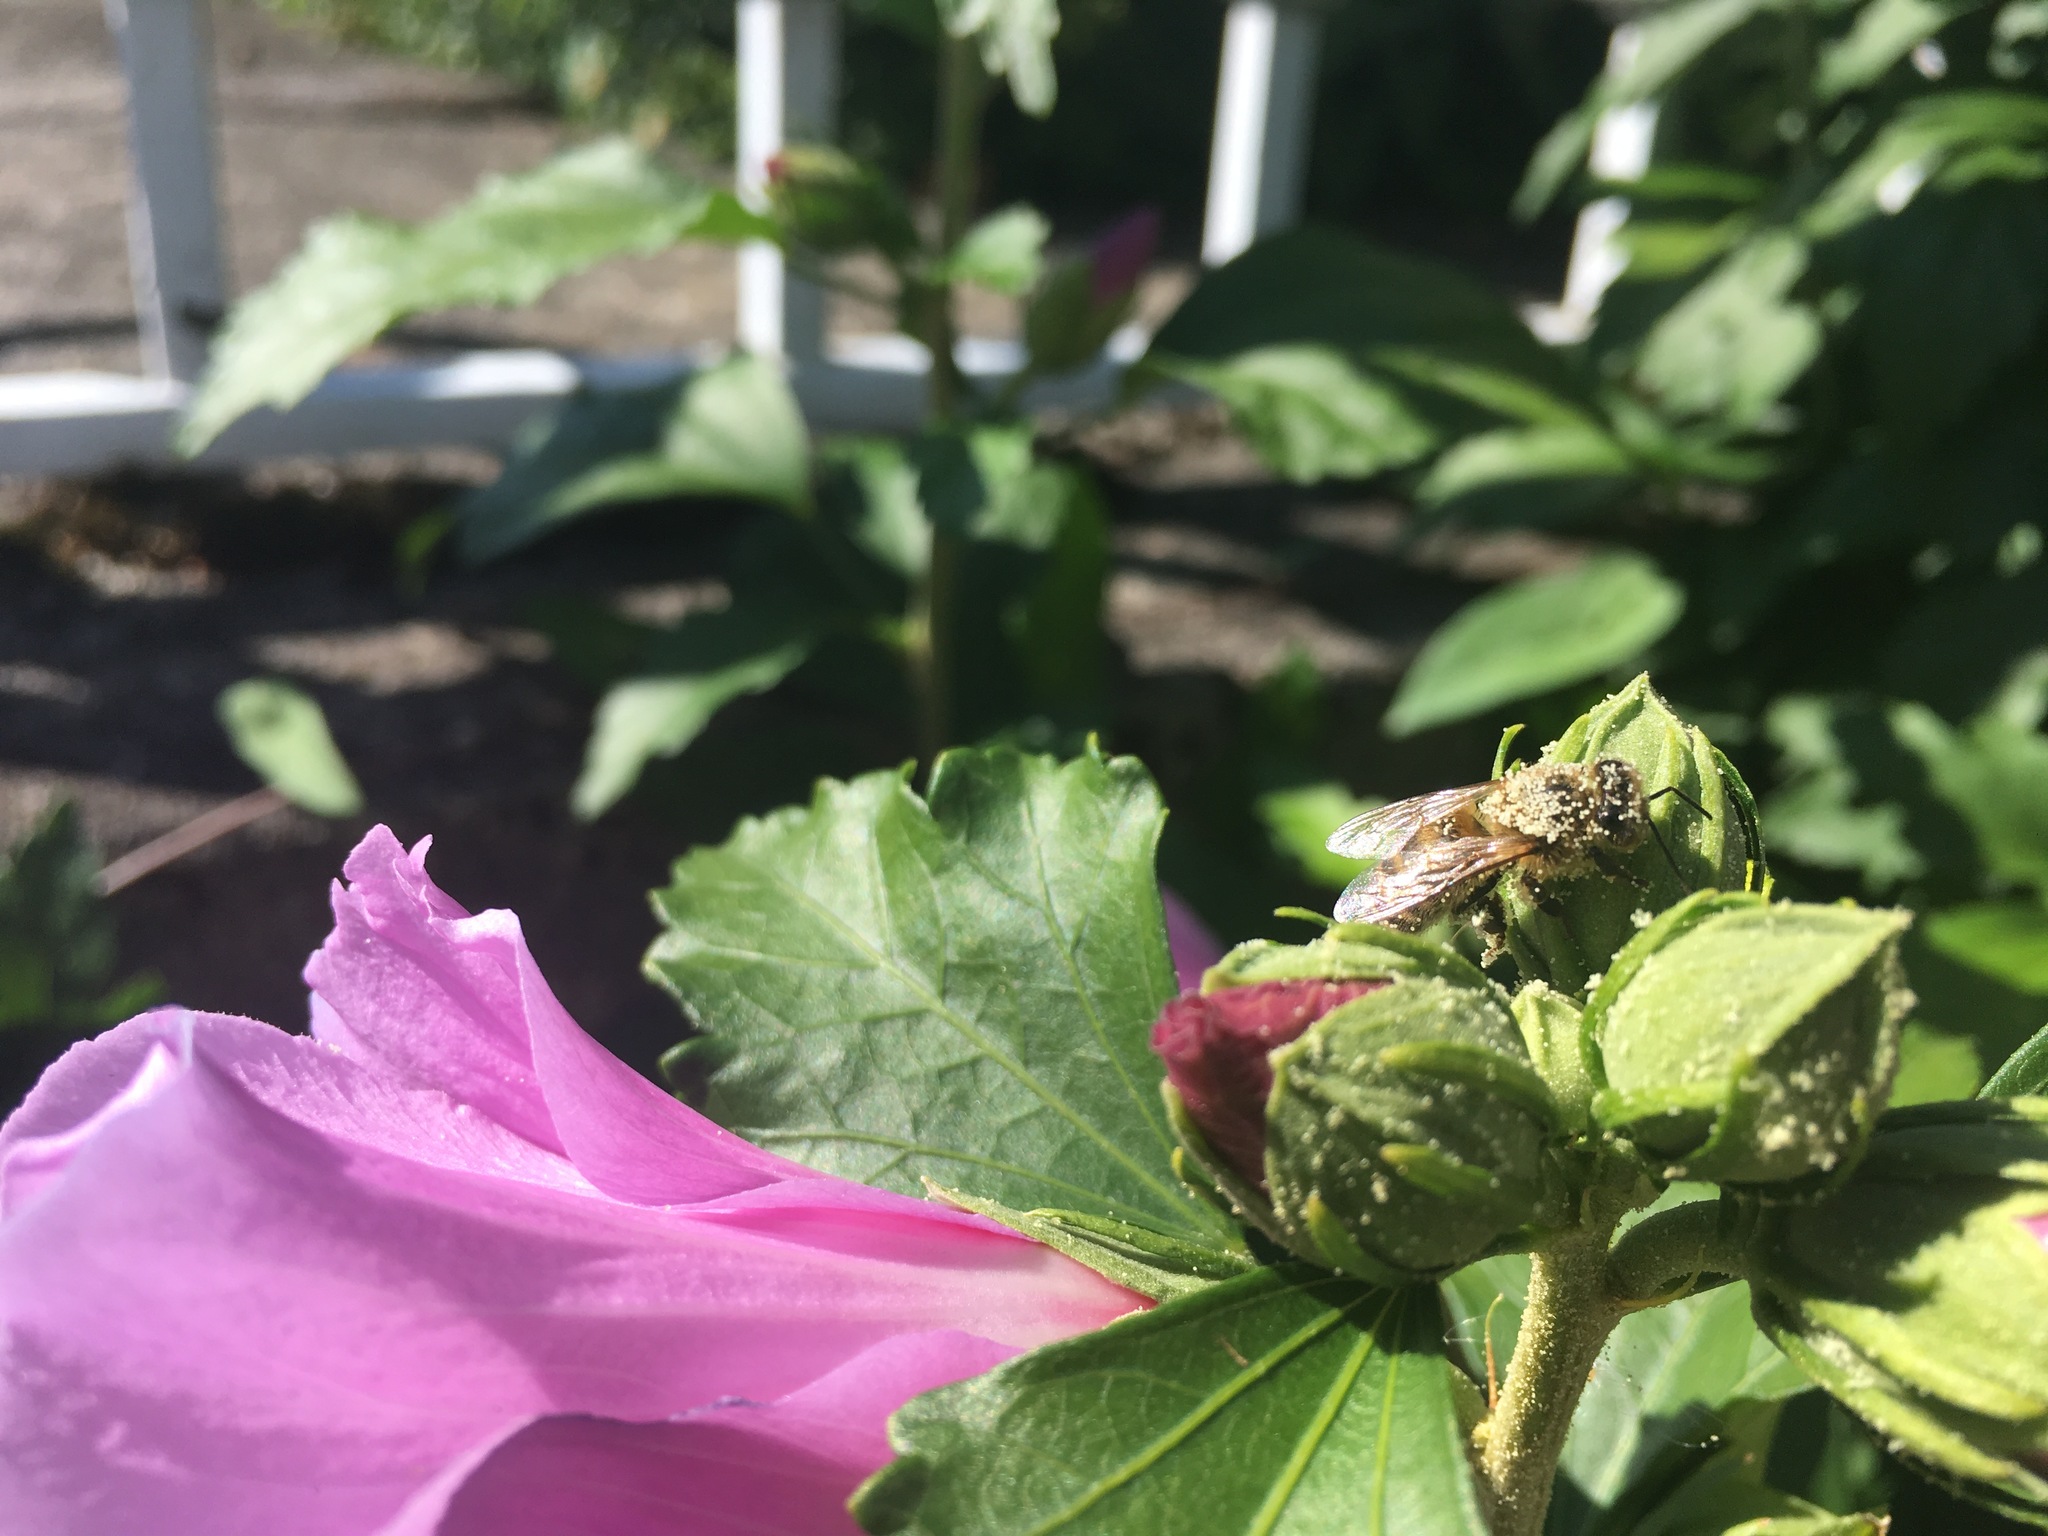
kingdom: Animalia
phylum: Arthropoda
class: Insecta
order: Hymenoptera
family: Apidae
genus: Apis
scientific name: Apis mellifera
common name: Honey bee
